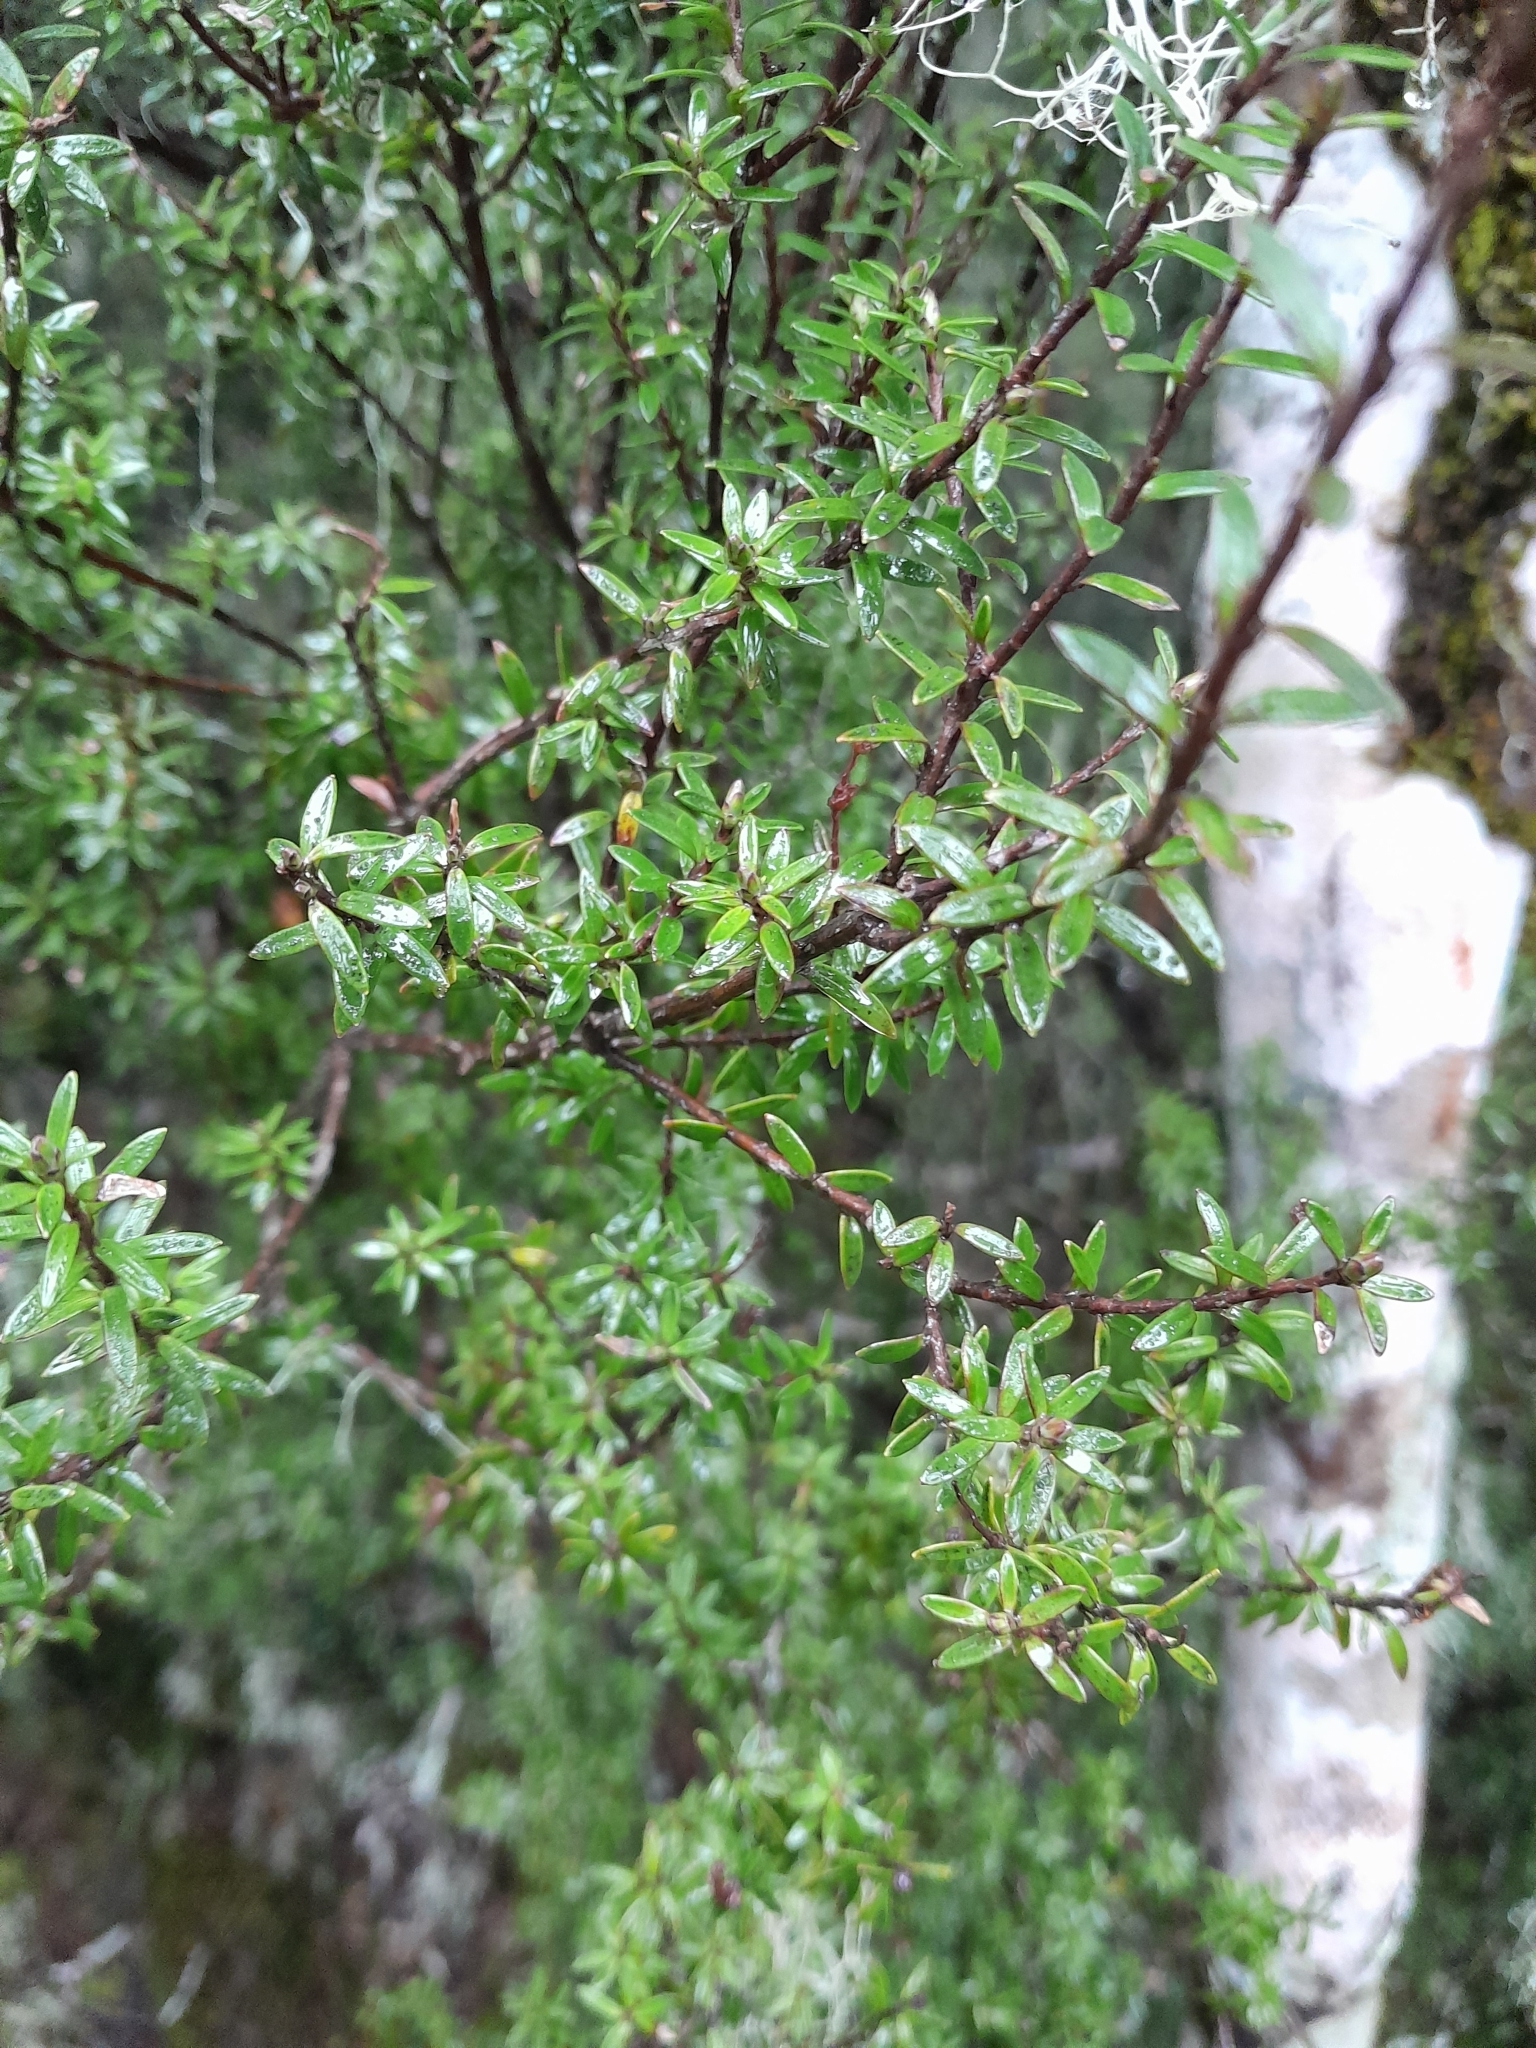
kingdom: Plantae
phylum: Tracheophyta
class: Magnoliopsida
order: Ericales
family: Ericaceae
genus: Archeria
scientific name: Archeria traversii
